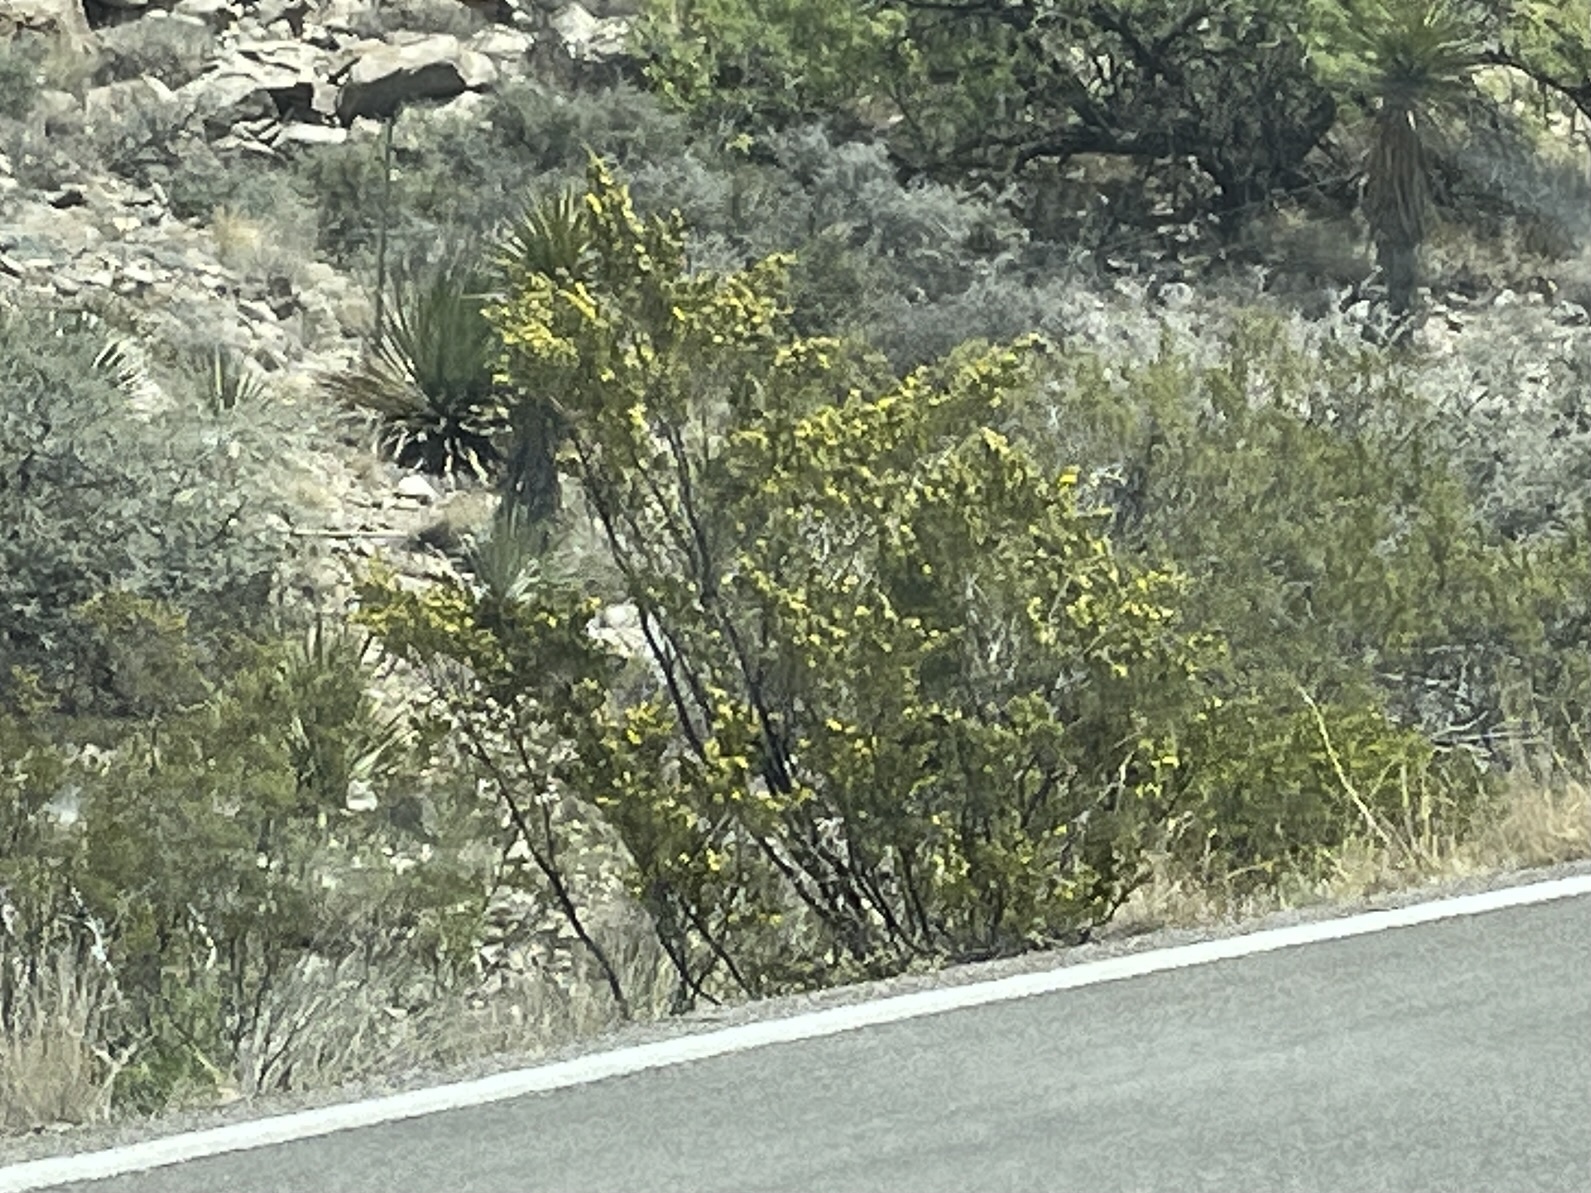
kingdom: Plantae
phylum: Tracheophyta
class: Magnoliopsida
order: Zygophyllales
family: Zygophyllaceae
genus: Larrea
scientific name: Larrea tridentata
